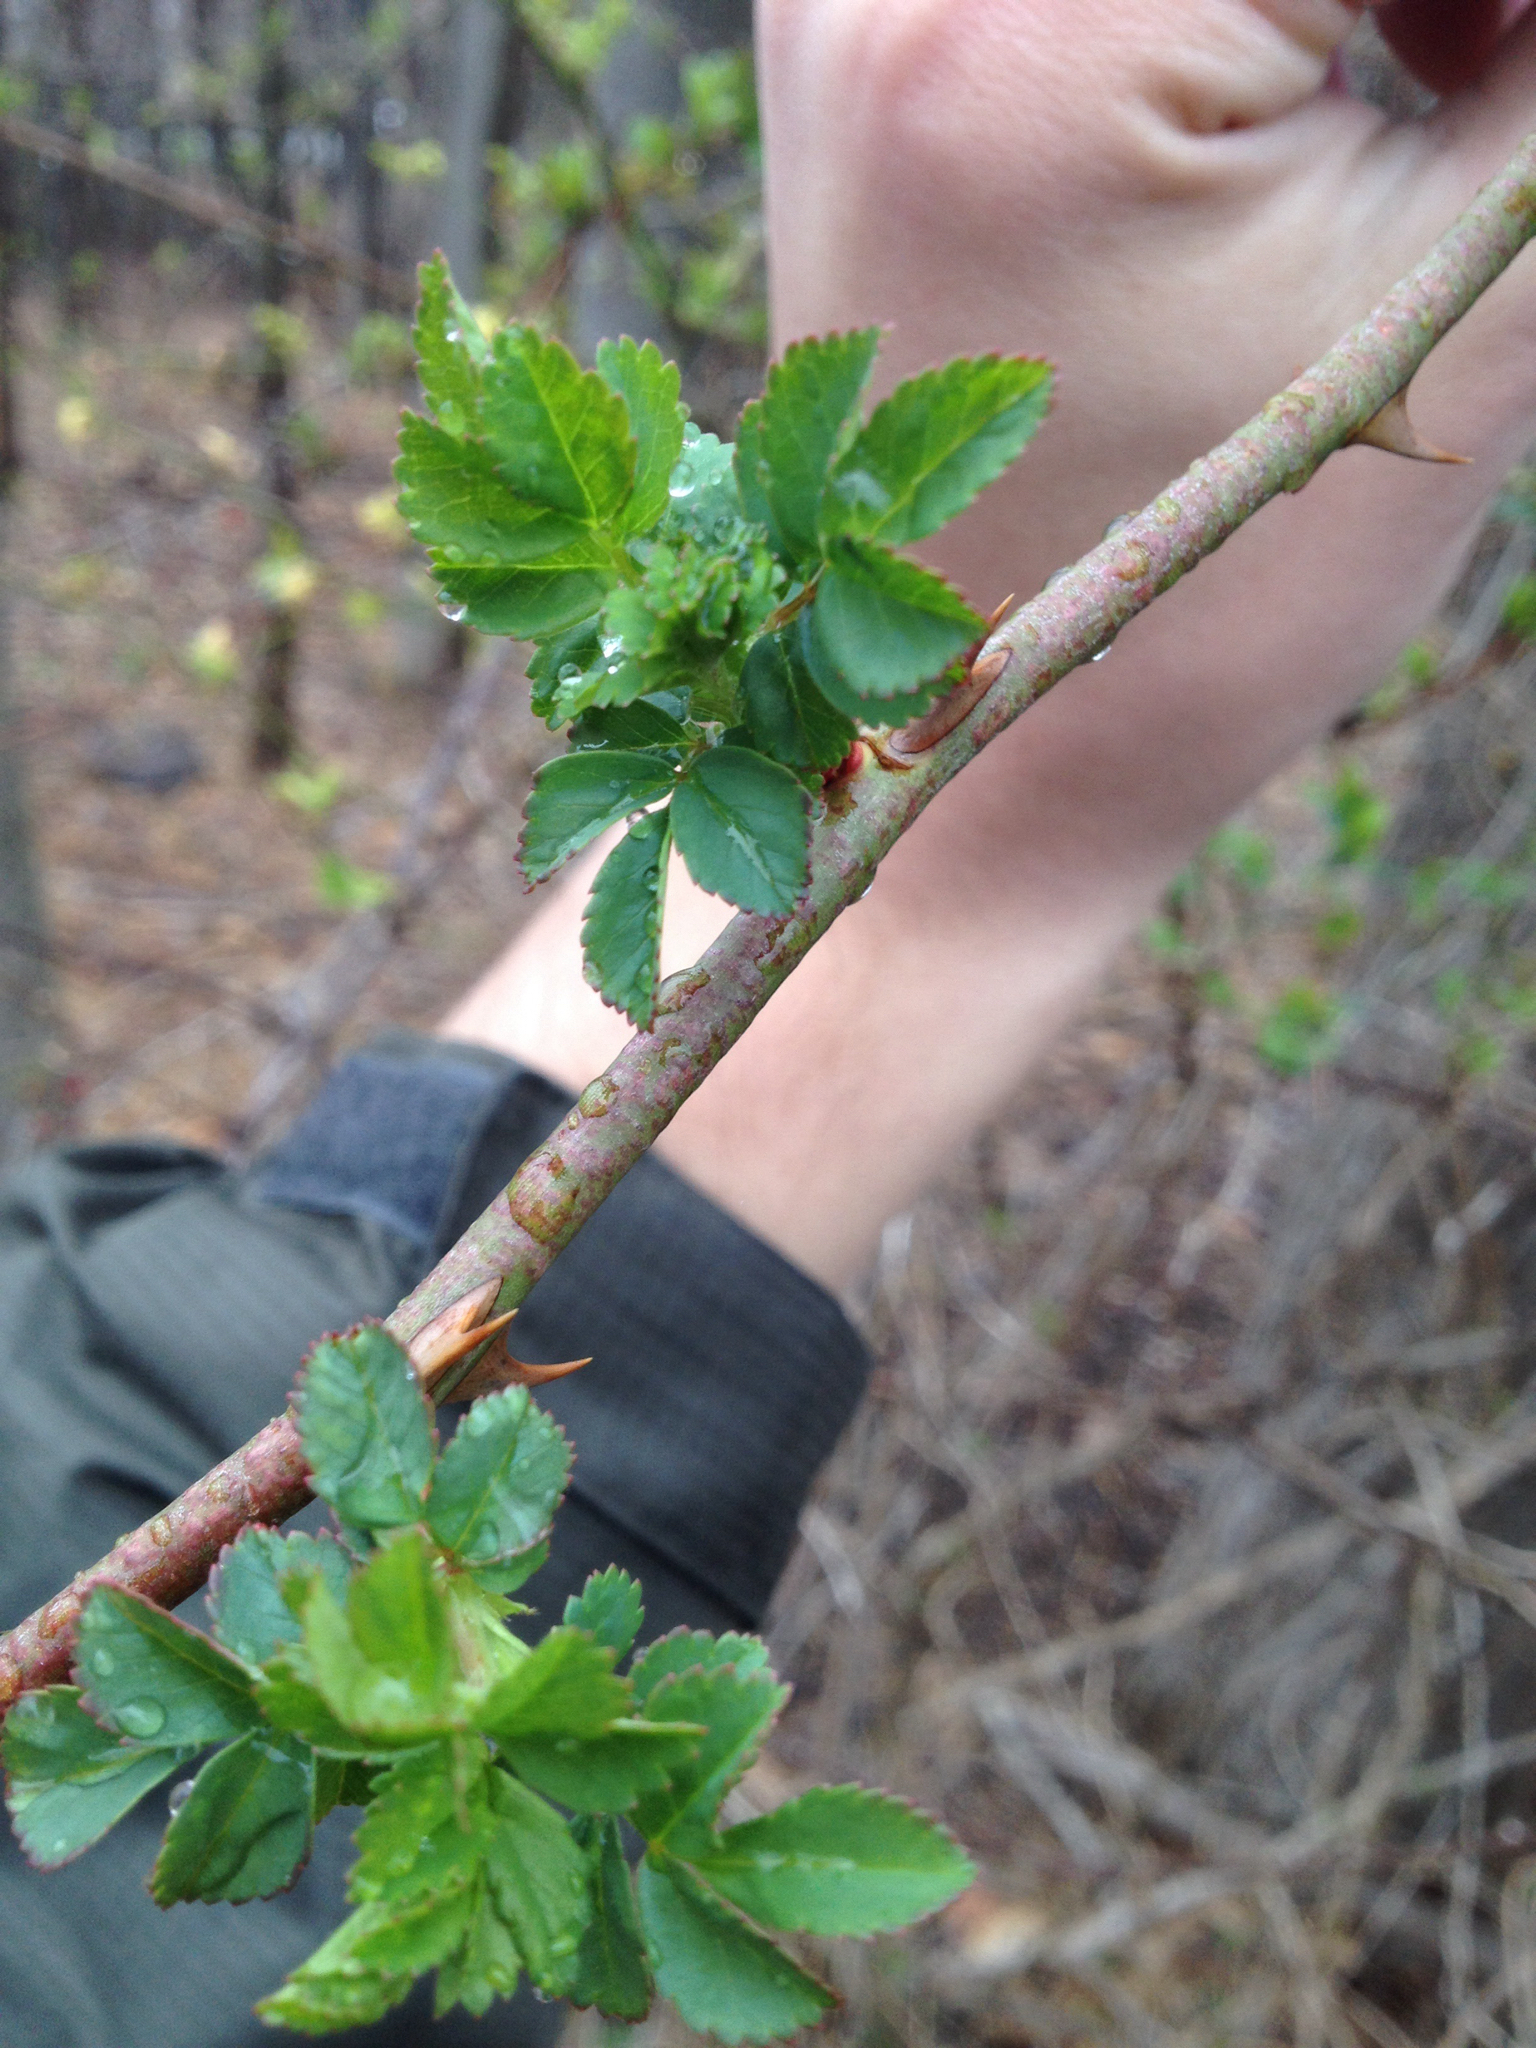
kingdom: Plantae
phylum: Tracheophyta
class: Magnoliopsida
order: Rosales
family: Rosaceae
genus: Rosa
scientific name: Rosa multiflora
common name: Multiflora rose
